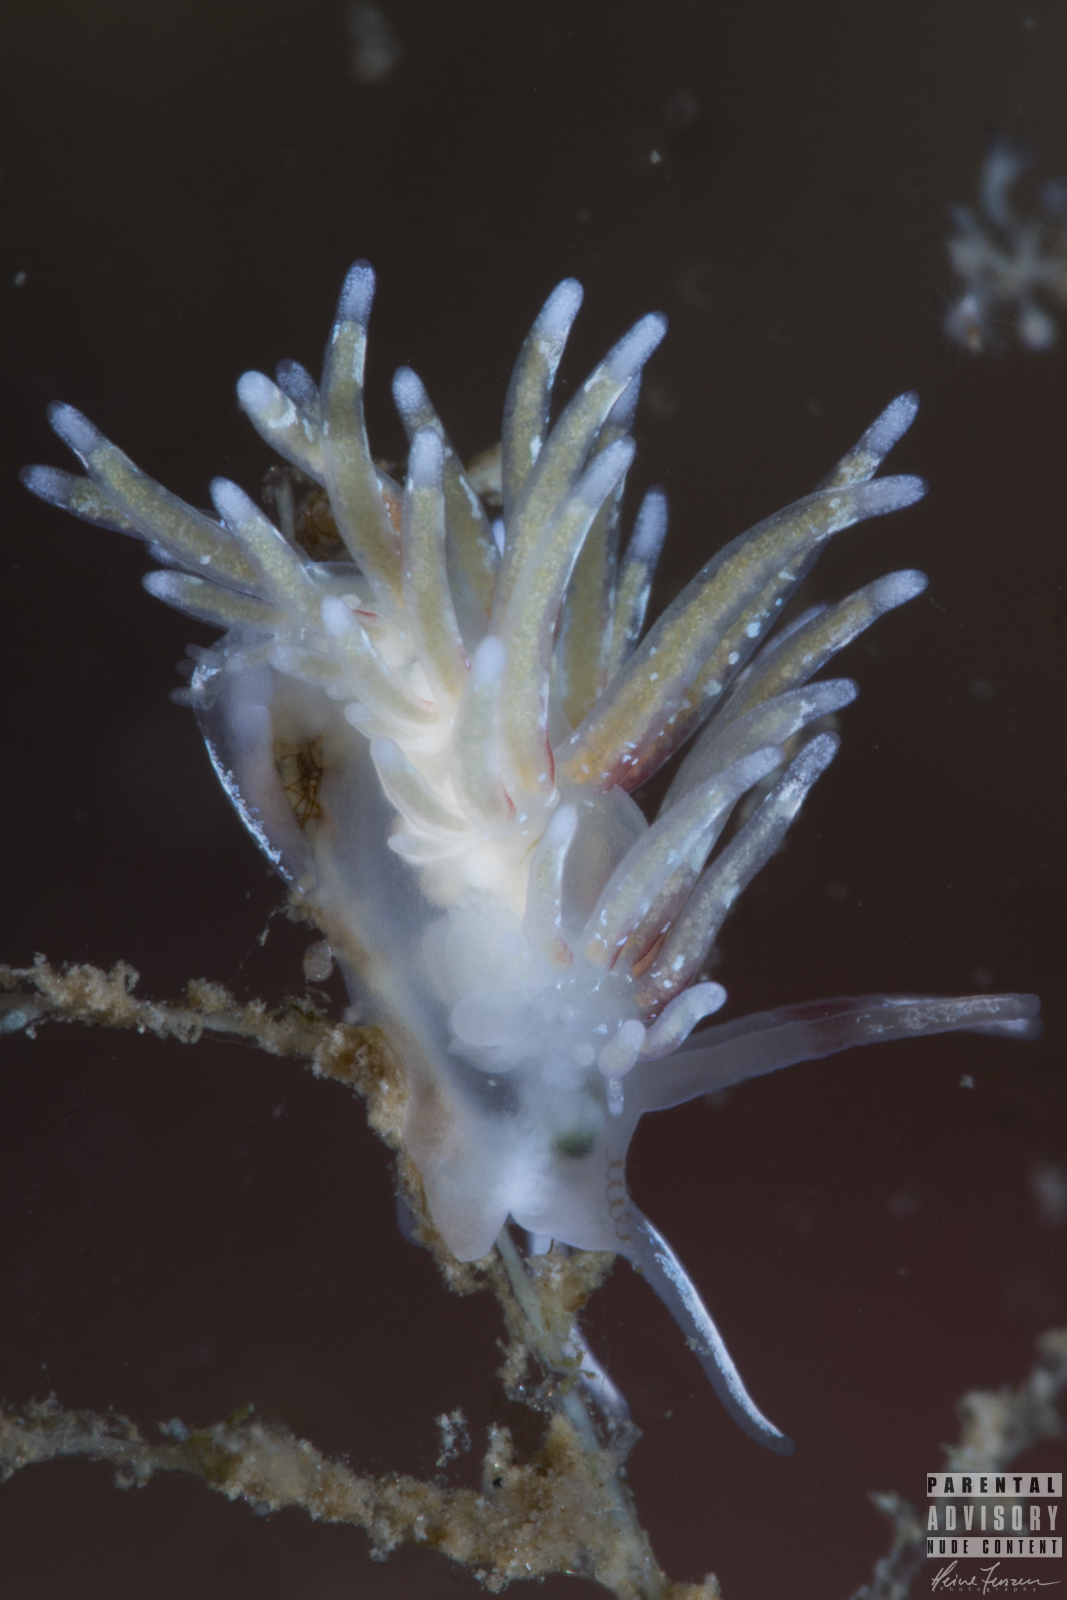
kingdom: Animalia
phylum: Mollusca
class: Gastropoda
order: Nudibranchia
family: Trinchesiidae
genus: Rubramoena
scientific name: Rubramoena rubescens
